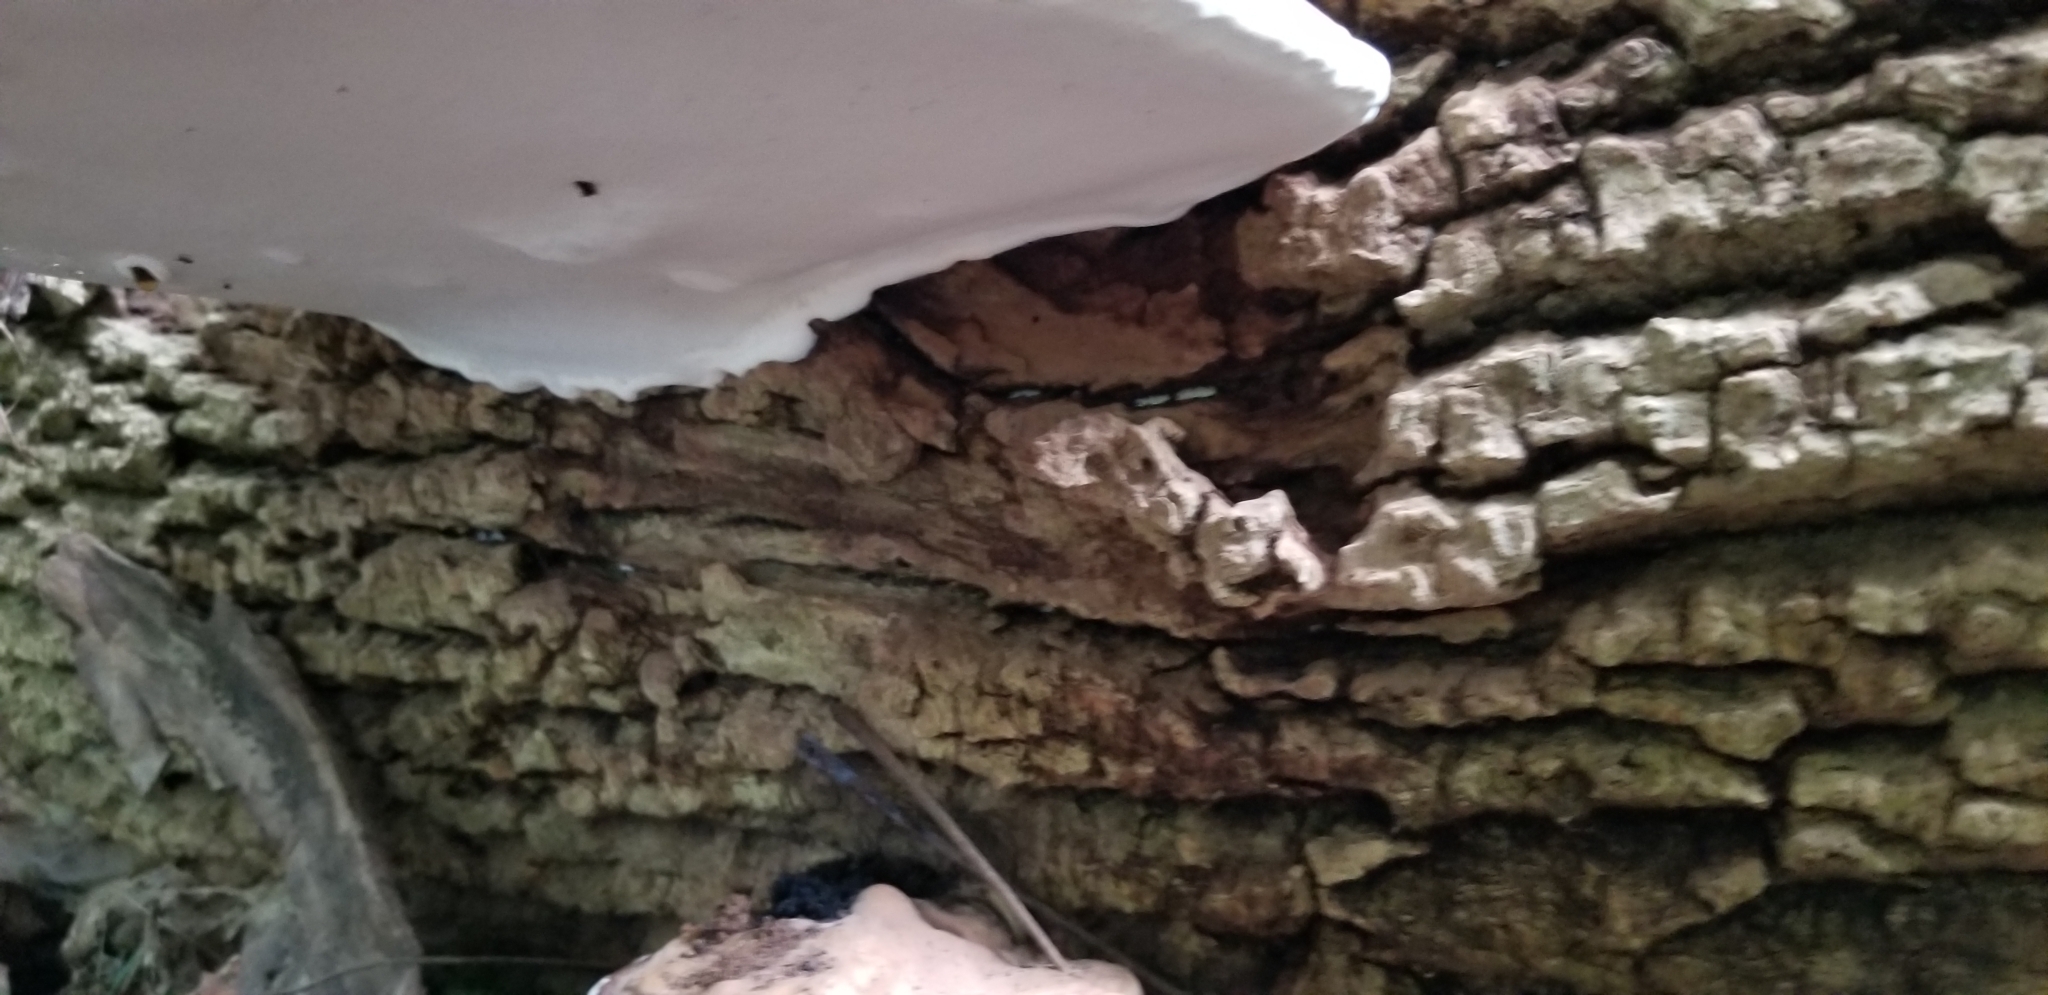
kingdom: Fungi
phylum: Basidiomycota
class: Agaricomycetes
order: Polyporales
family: Polyporaceae
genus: Ganoderma
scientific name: Ganoderma applanatum
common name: Artist's bracket
